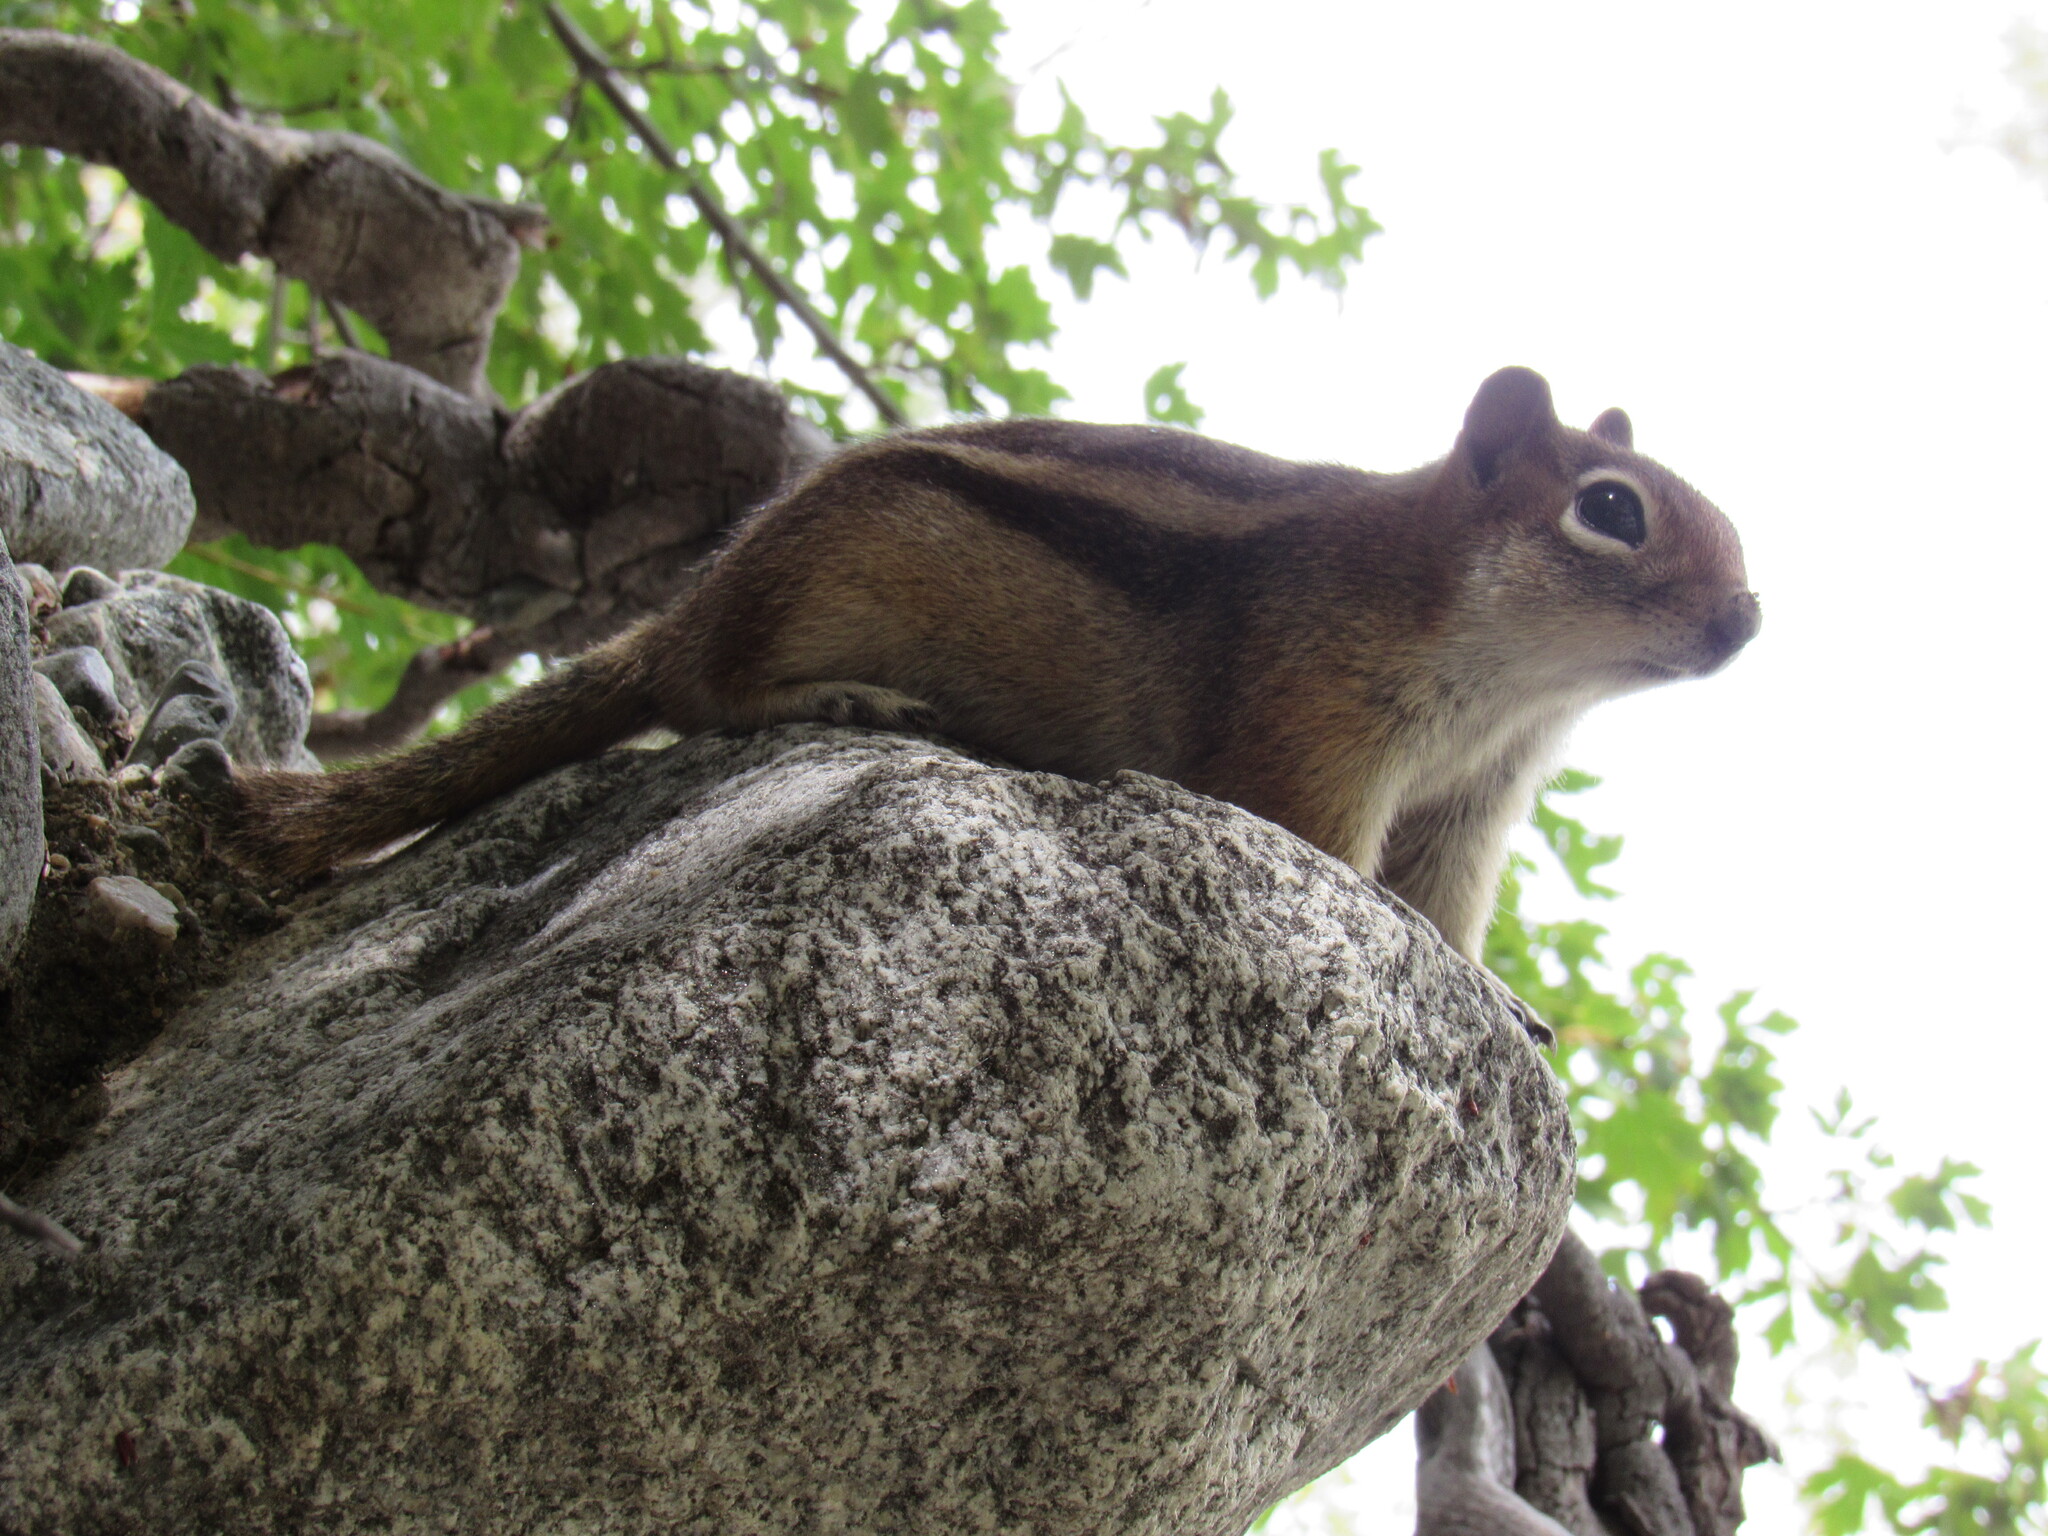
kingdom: Animalia
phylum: Chordata
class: Mammalia
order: Rodentia
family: Sciuridae
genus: Callospermophilus
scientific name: Callospermophilus lateralis
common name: Golden-mantled ground squirrel
